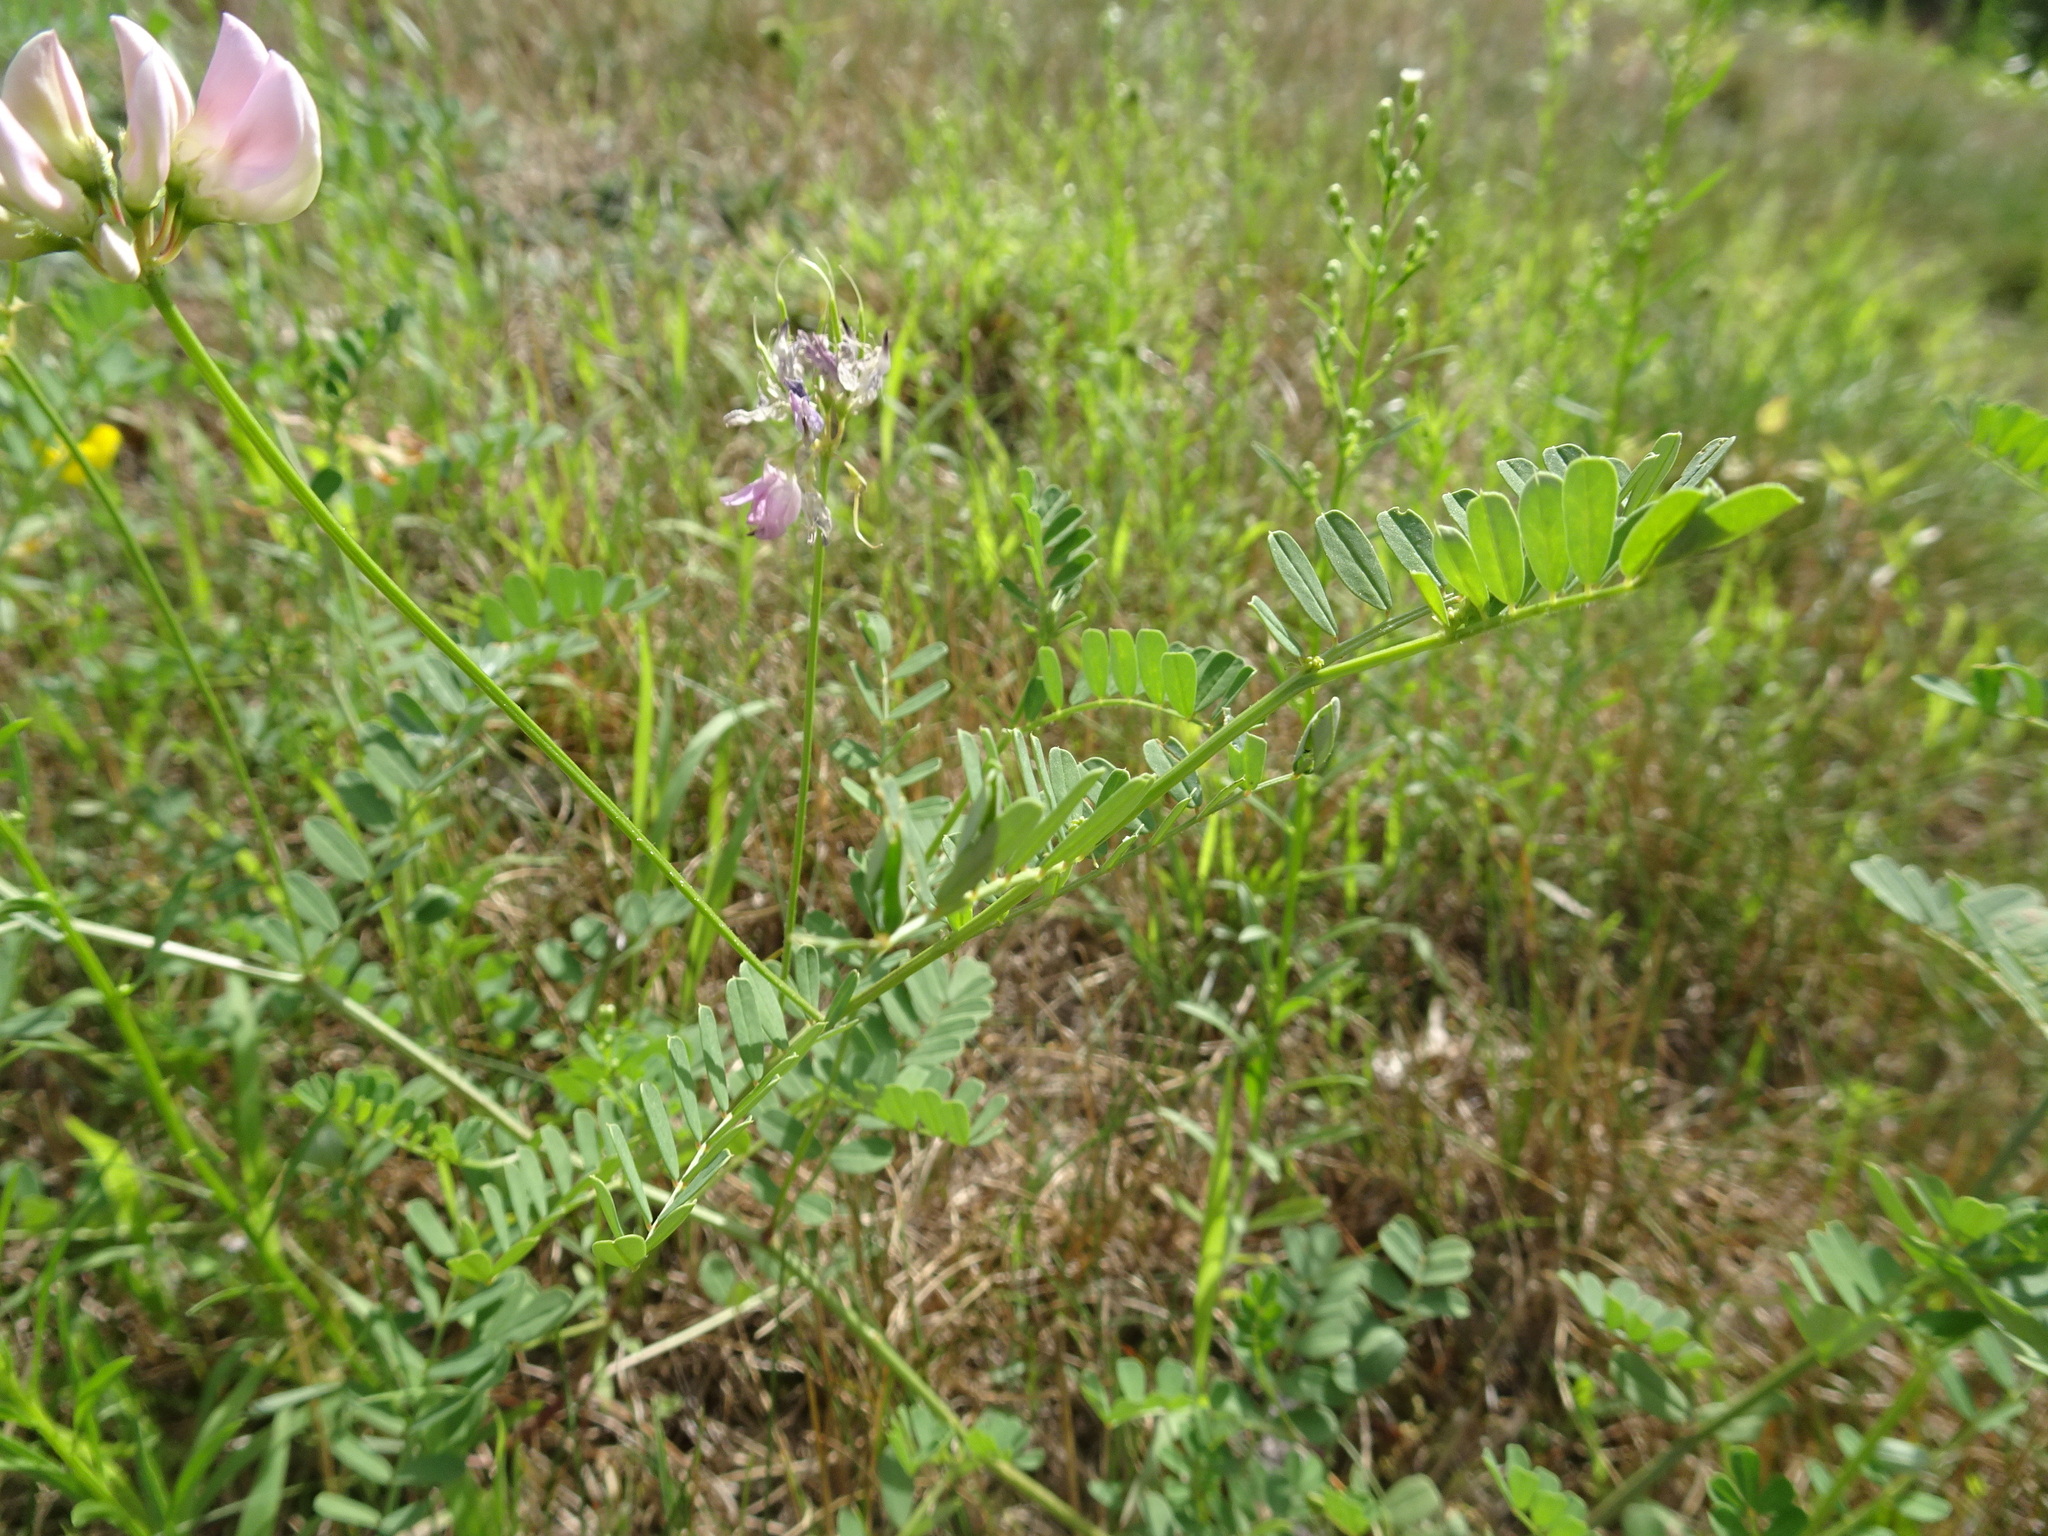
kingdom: Plantae
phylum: Tracheophyta
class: Magnoliopsida
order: Fabales
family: Fabaceae
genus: Coronilla
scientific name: Coronilla varia
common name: Crownvetch
